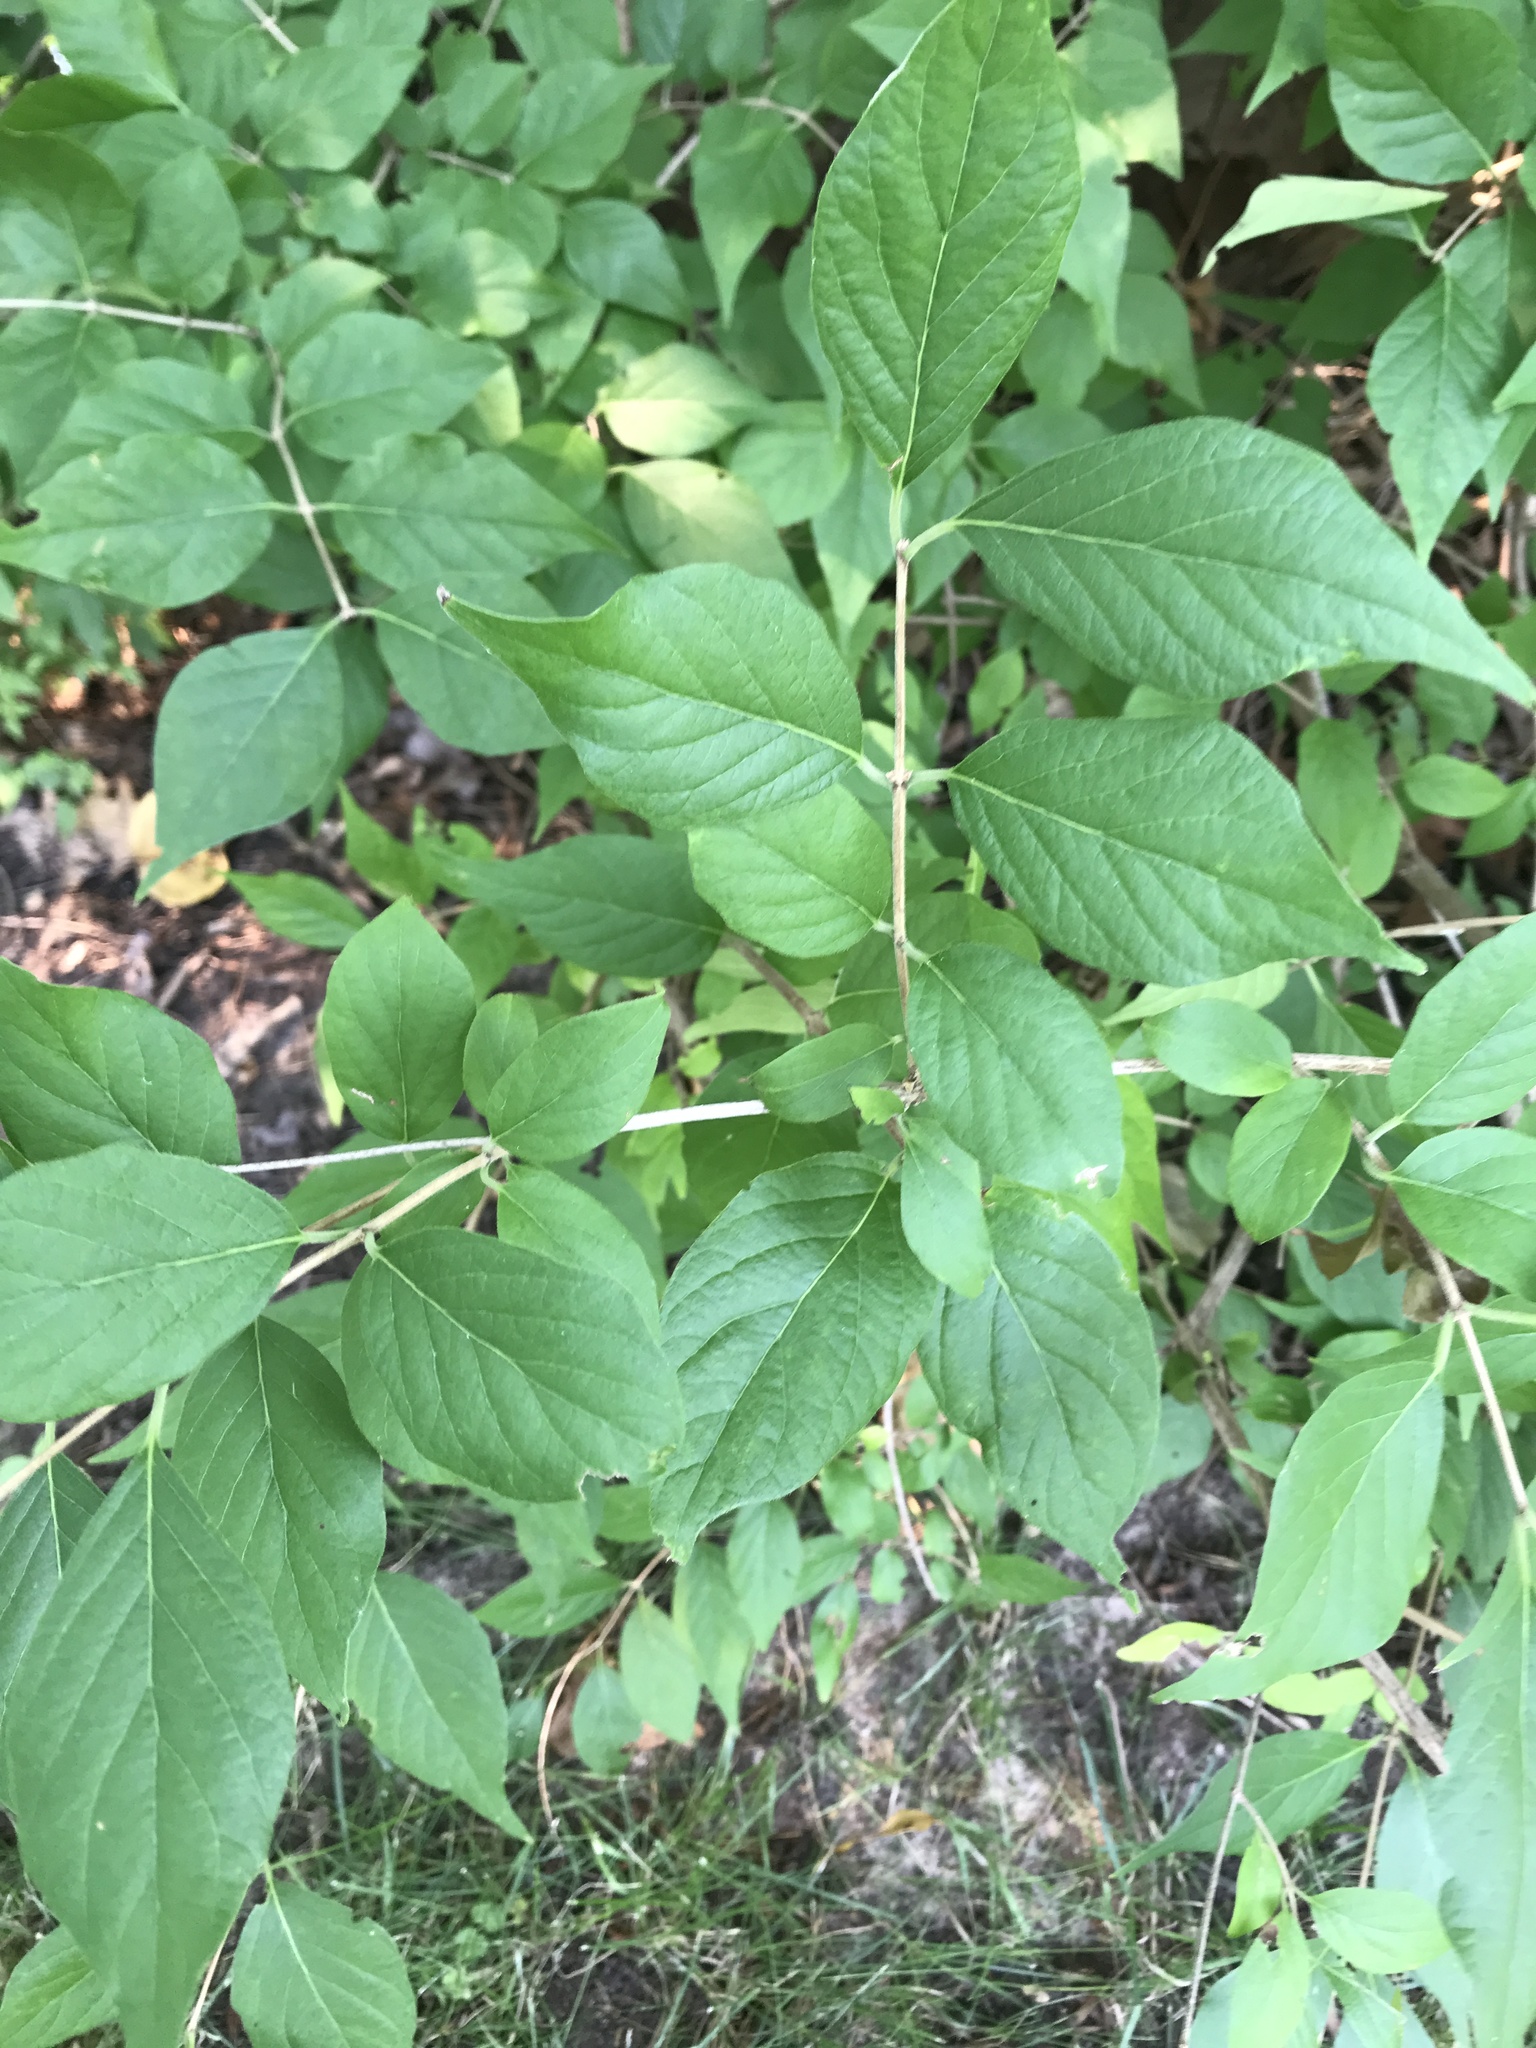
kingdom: Plantae
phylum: Tracheophyta
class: Magnoliopsida
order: Dipsacales
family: Caprifoliaceae
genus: Lonicera
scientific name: Lonicera maackii
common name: Amur honeysuckle
